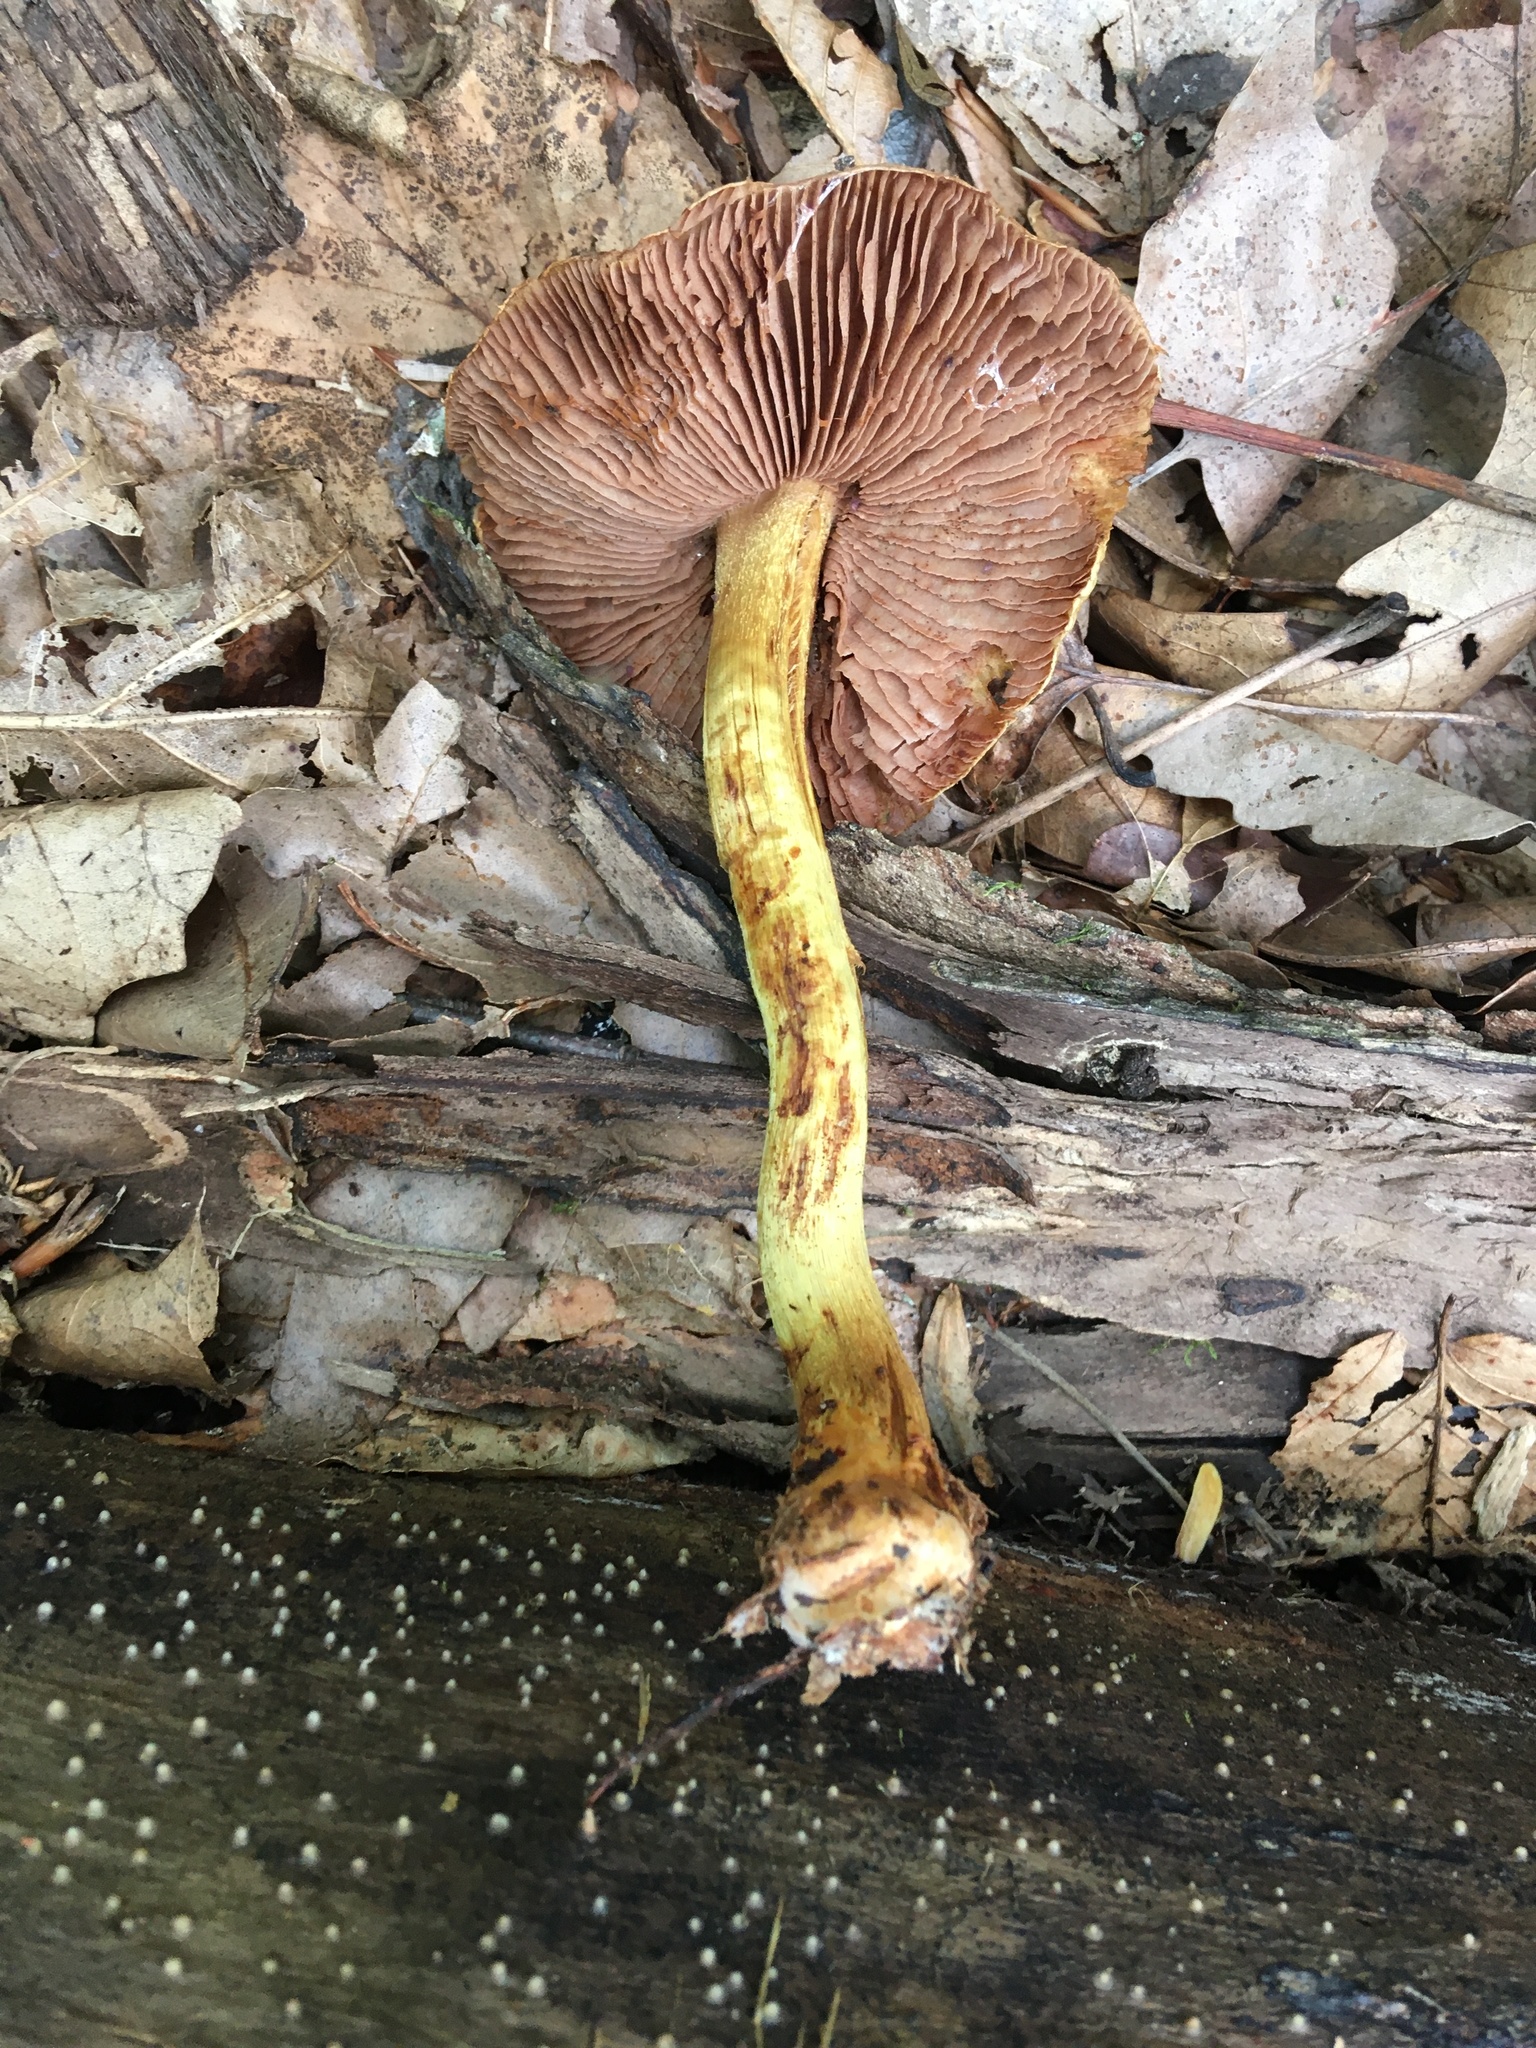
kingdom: Fungi
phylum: Basidiomycota
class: Agaricomycetes
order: Agaricales
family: Cortinariaceae
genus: Cortinarius
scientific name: Cortinarius corrugatus
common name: Wrinkled cortinarius
